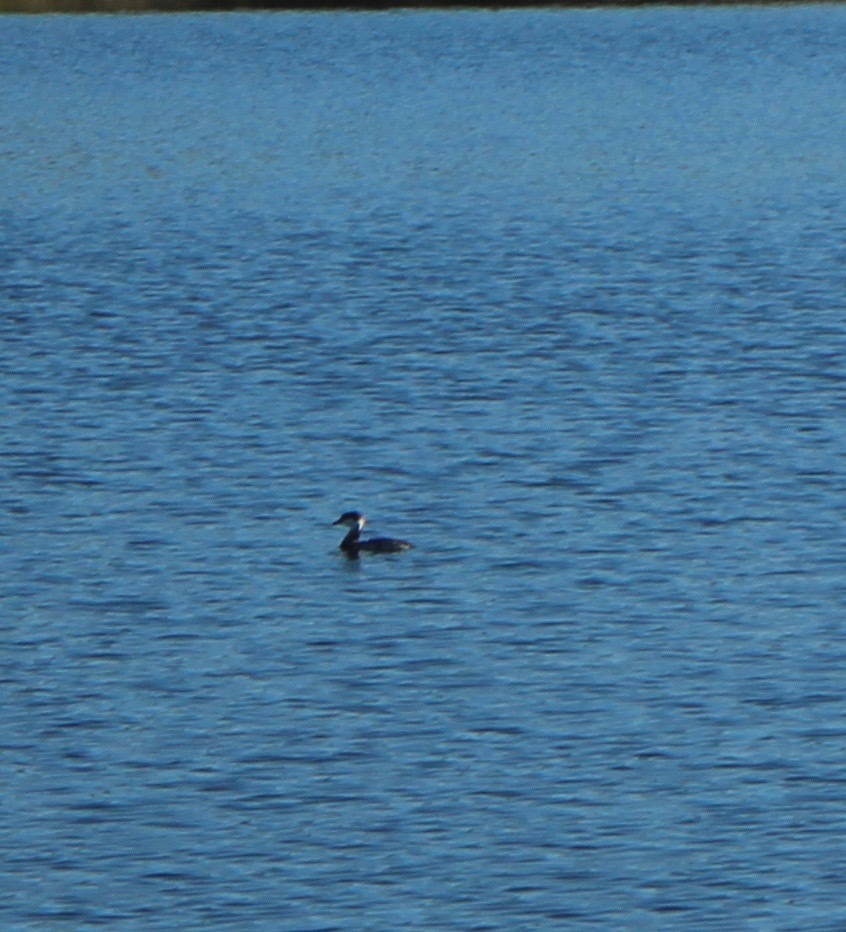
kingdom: Animalia
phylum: Chordata
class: Aves
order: Podicipediformes
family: Podicipedidae
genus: Podiceps
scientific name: Podiceps auritus
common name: Horned grebe
